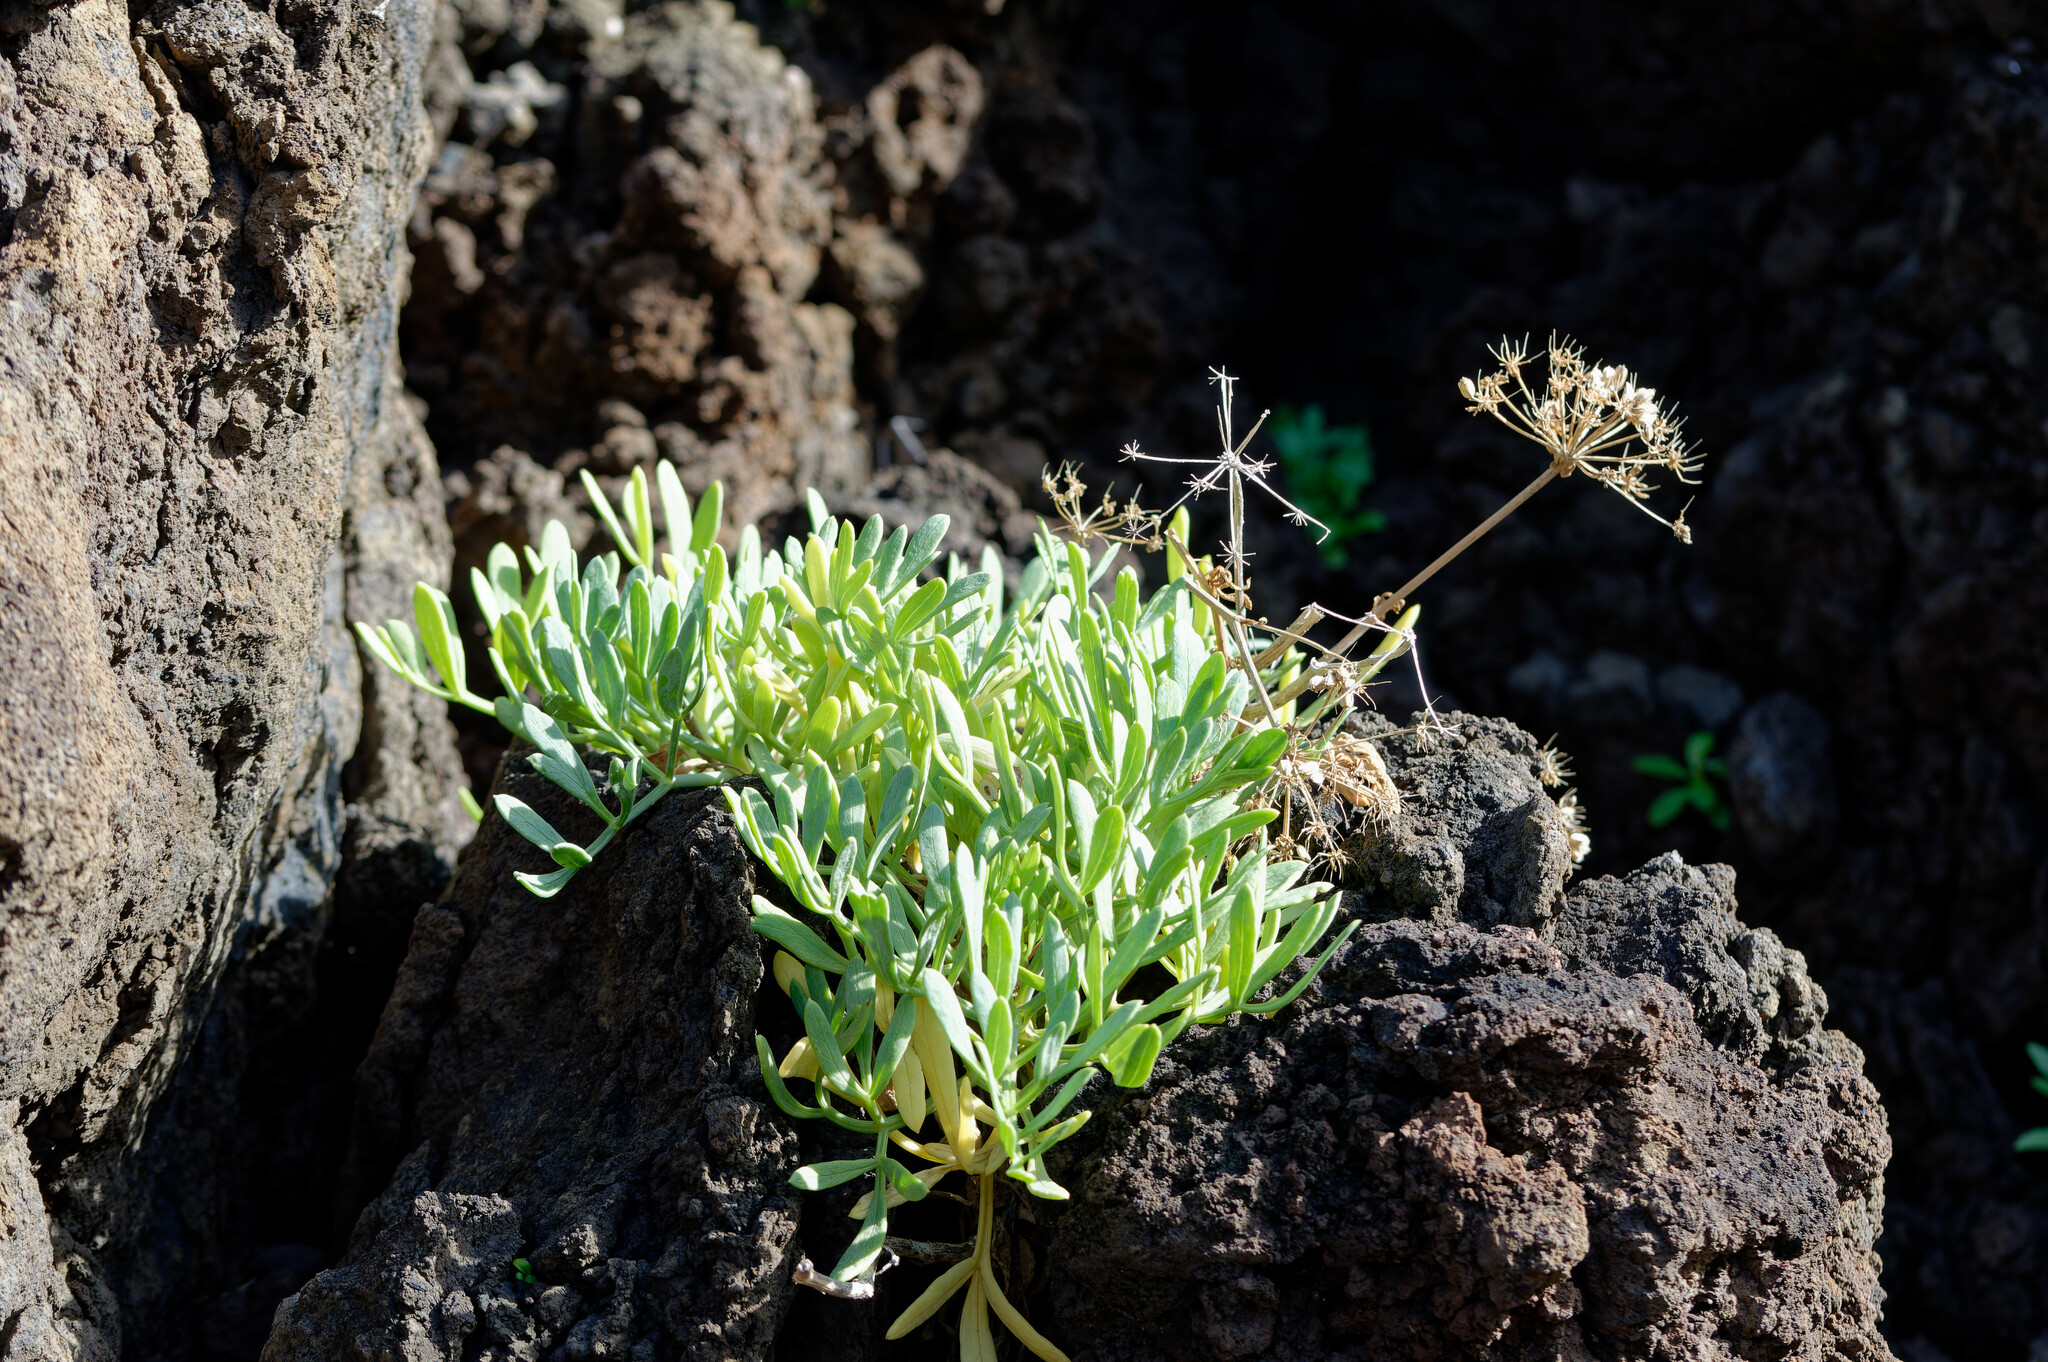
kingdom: Plantae
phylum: Tracheophyta
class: Magnoliopsida
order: Apiales
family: Apiaceae
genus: Crithmum
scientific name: Crithmum maritimum
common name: Rock samphire
